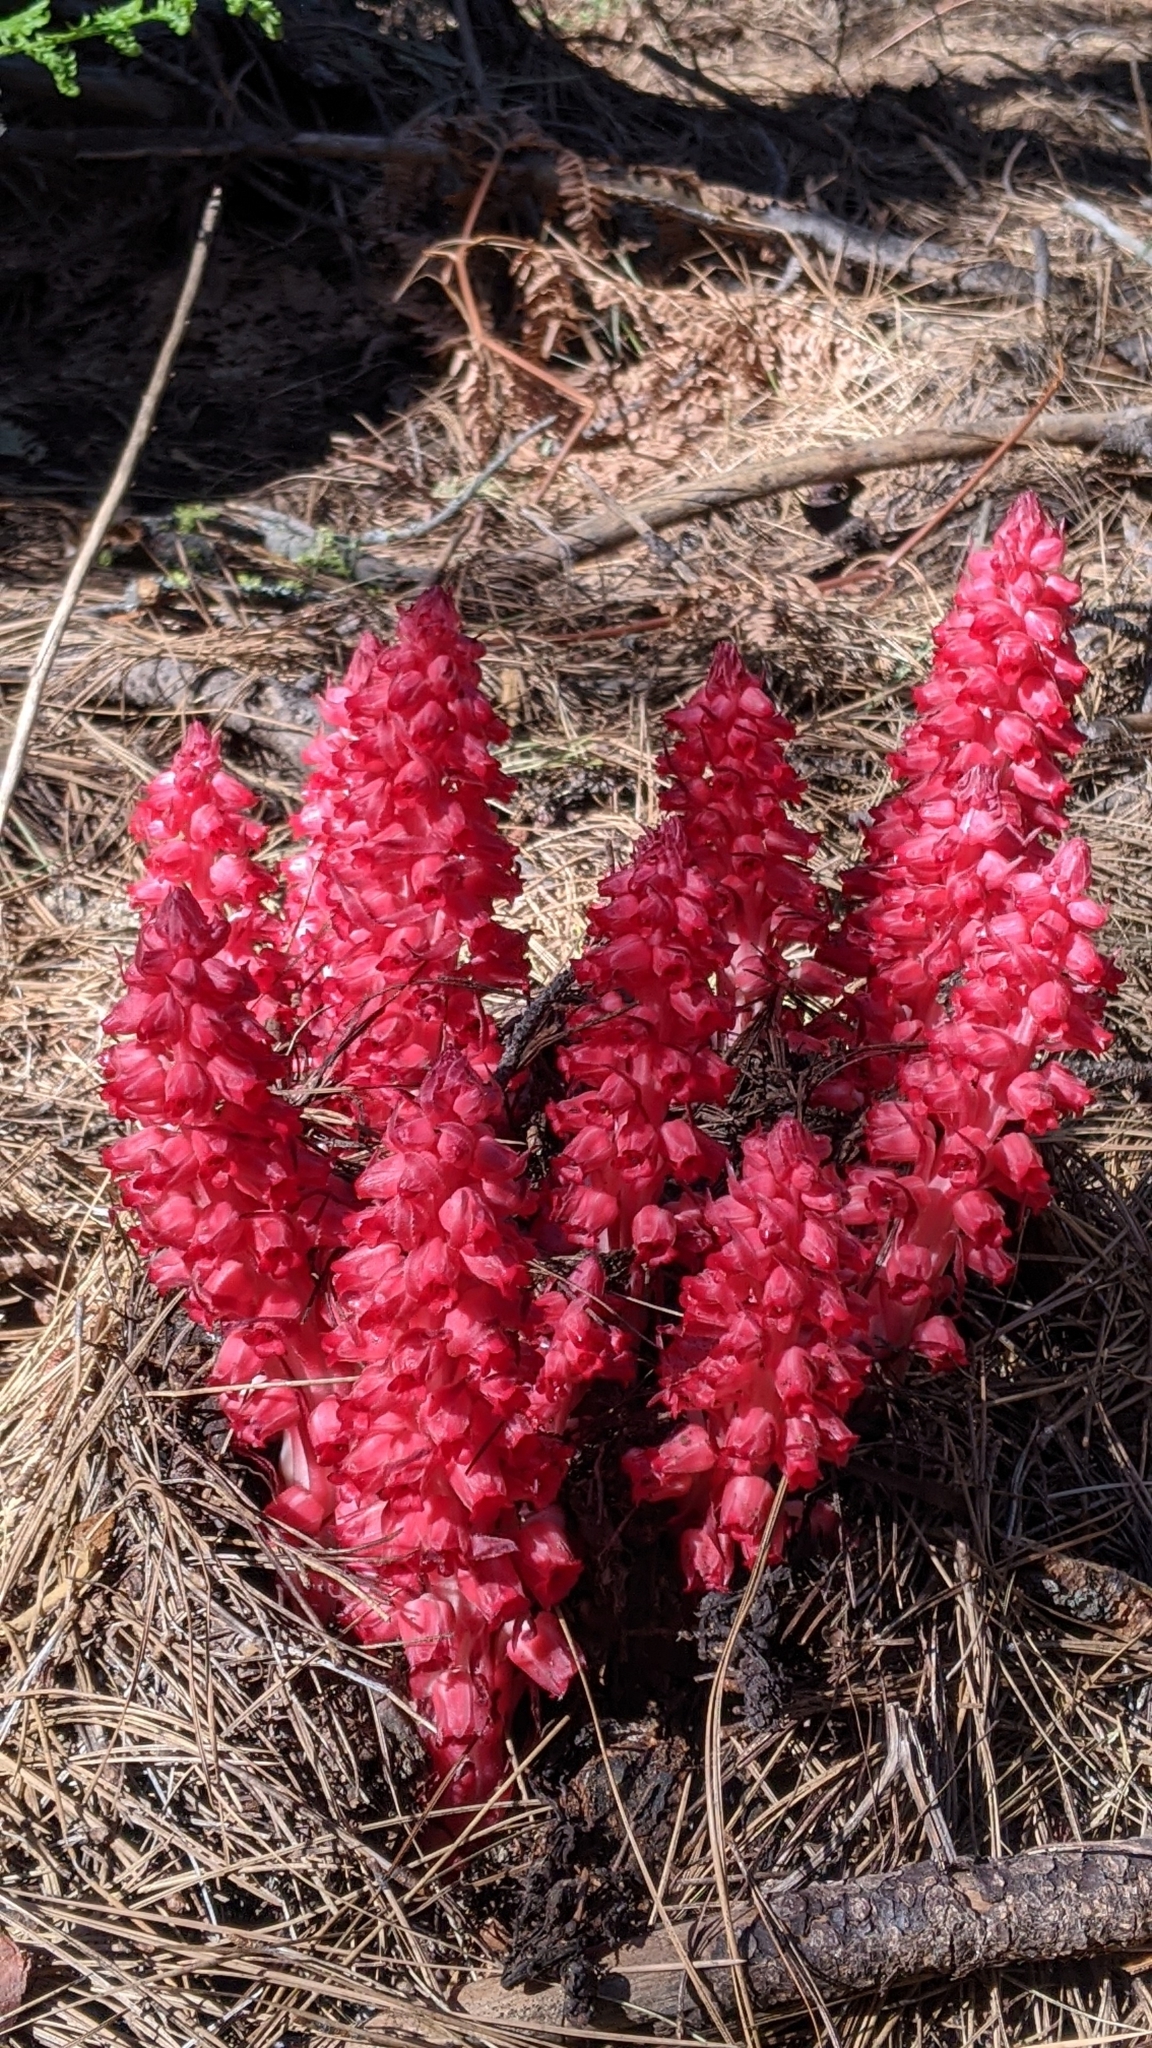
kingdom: Plantae
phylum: Tracheophyta
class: Magnoliopsida
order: Ericales
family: Ericaceae
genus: Sarcodes
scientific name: Sarcodes sanguinea
